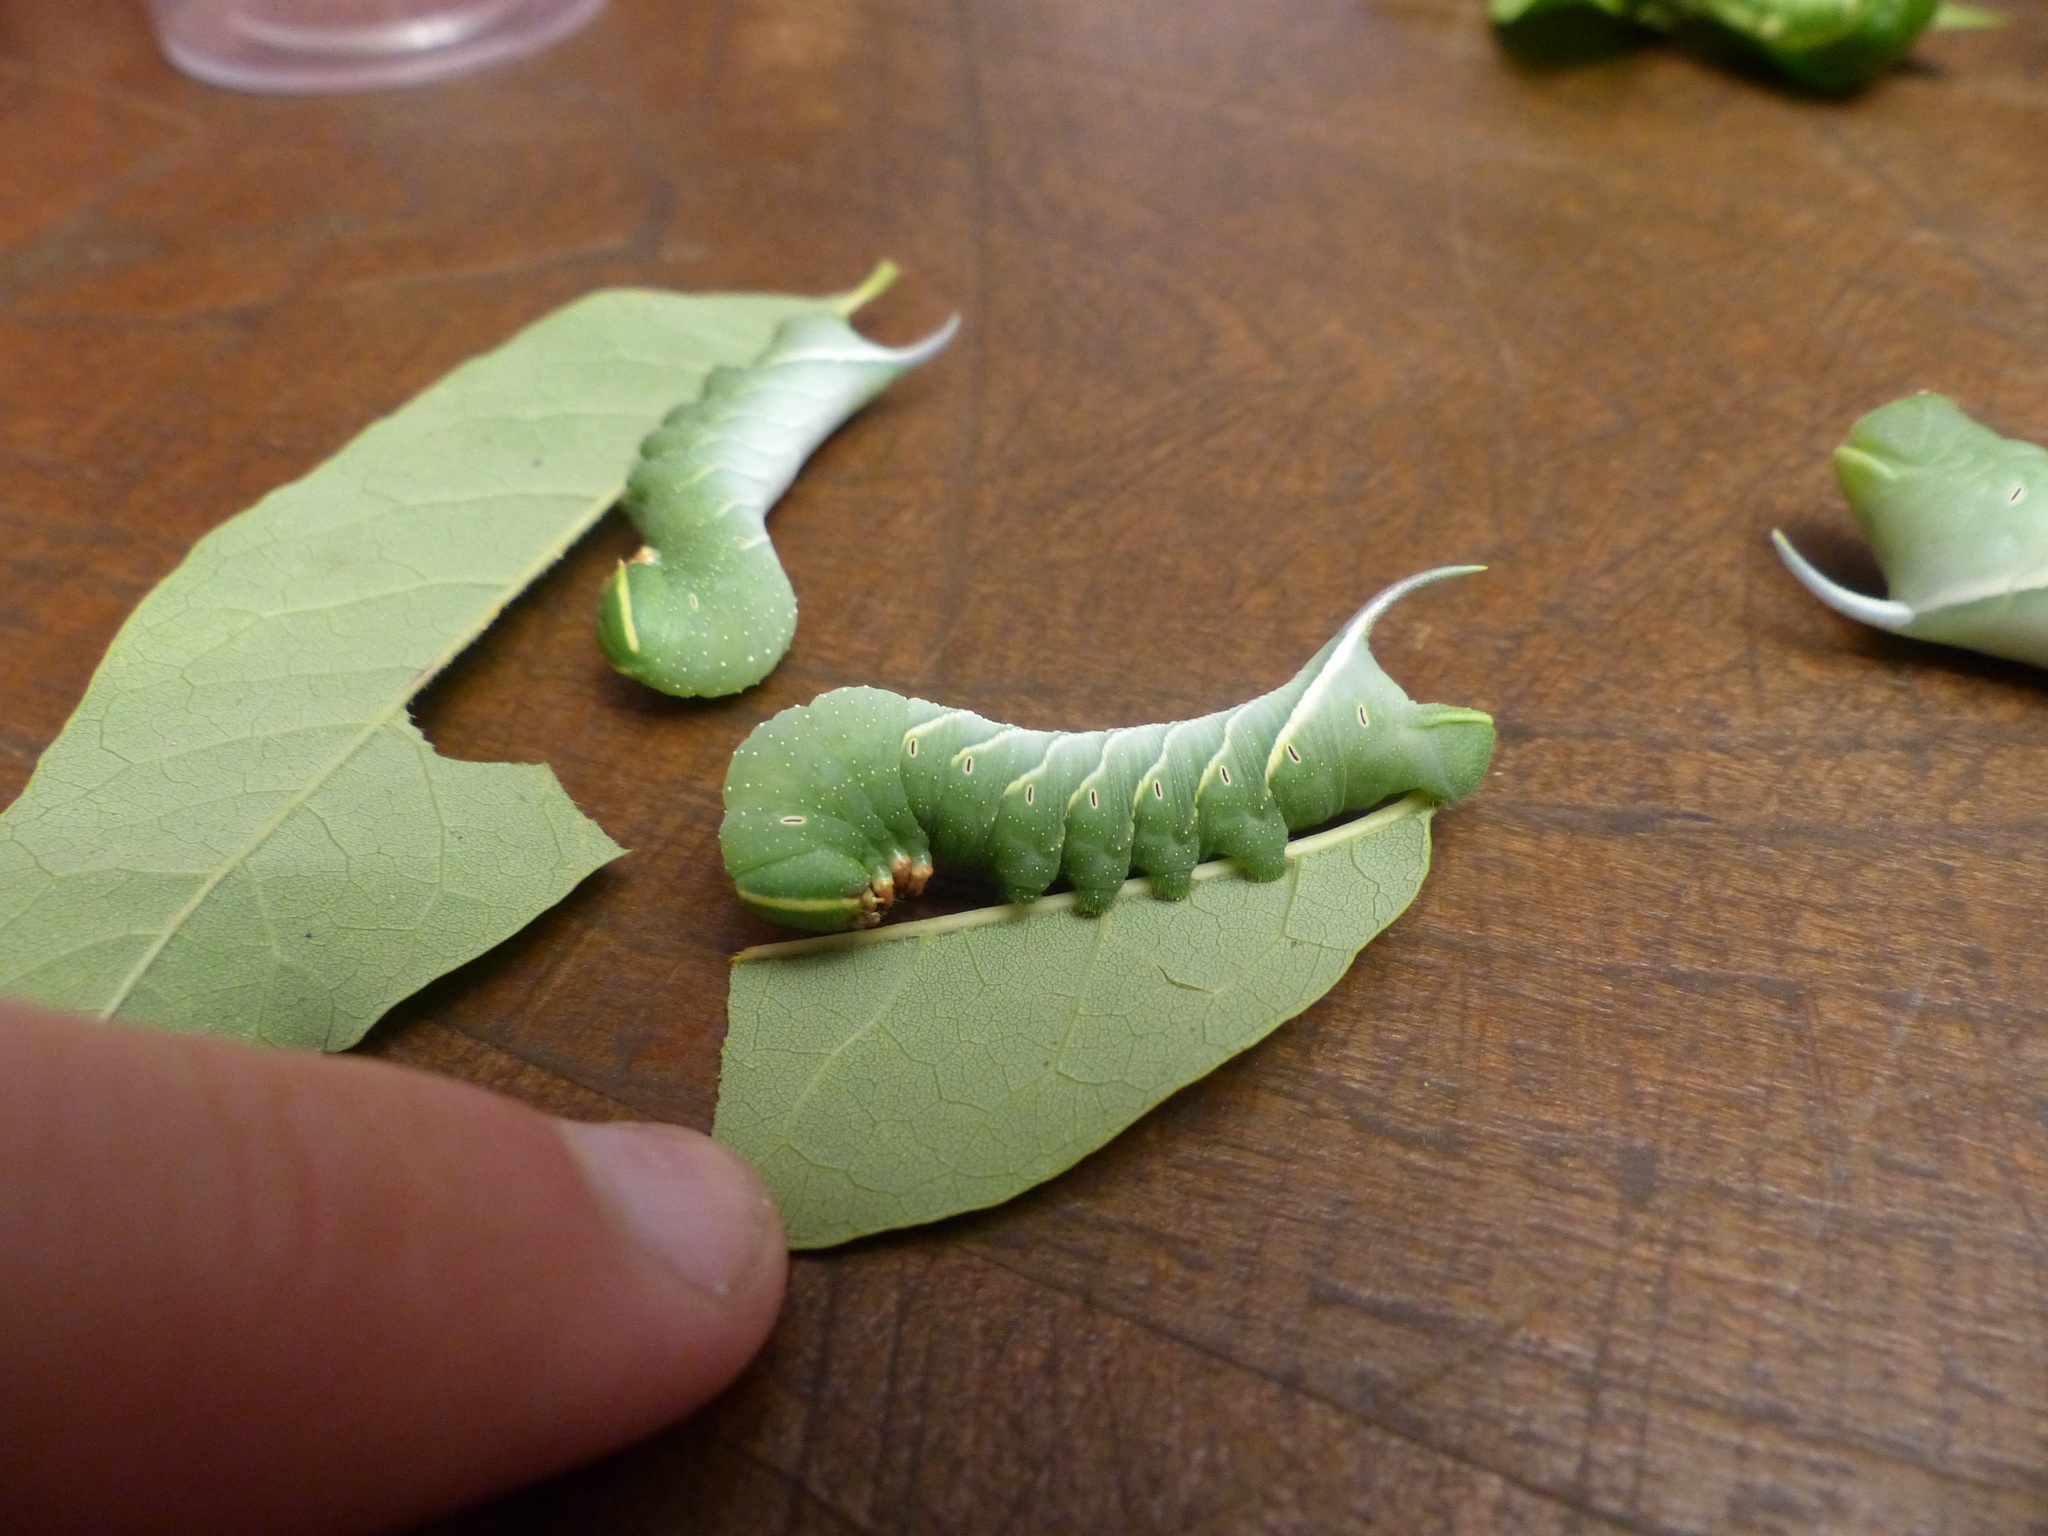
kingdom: Animalia
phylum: Arthropoda
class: Insecta
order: Lepidoptera
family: Sphingidae
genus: Sphinx
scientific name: Sphinx chersis
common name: Great ash sphinx
